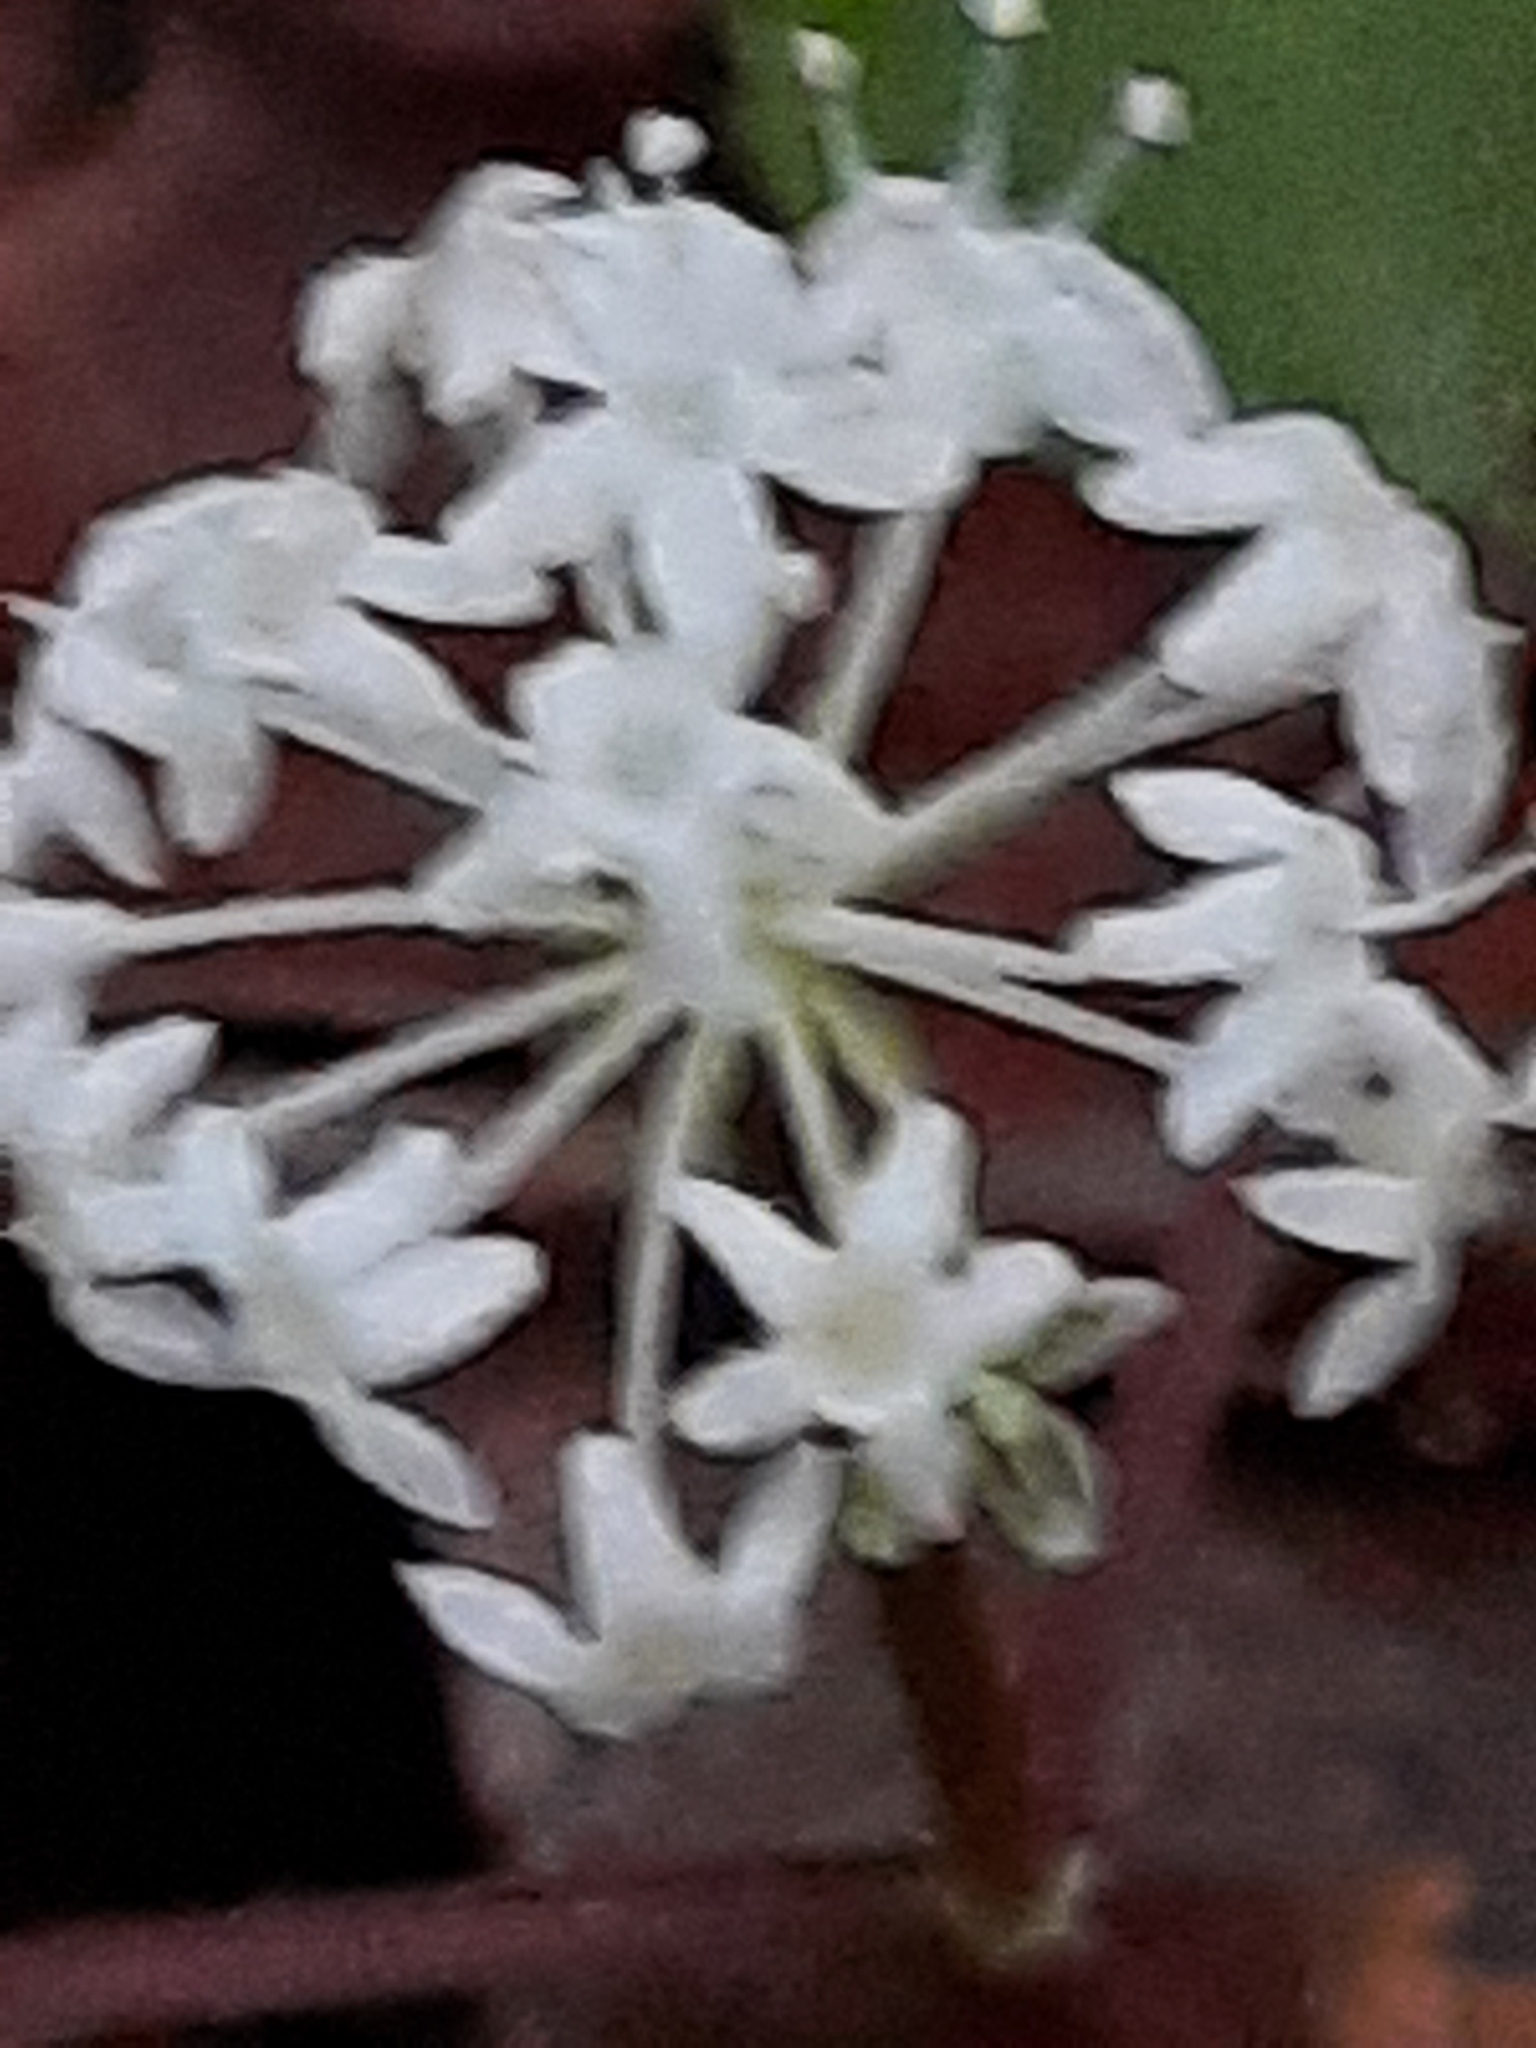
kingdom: Plantae
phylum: Tracheophyta
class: Magnoliopsida
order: Apiales
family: Araliaceae
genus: Panax
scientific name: Panax trifolius
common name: Dwarf ginseng
